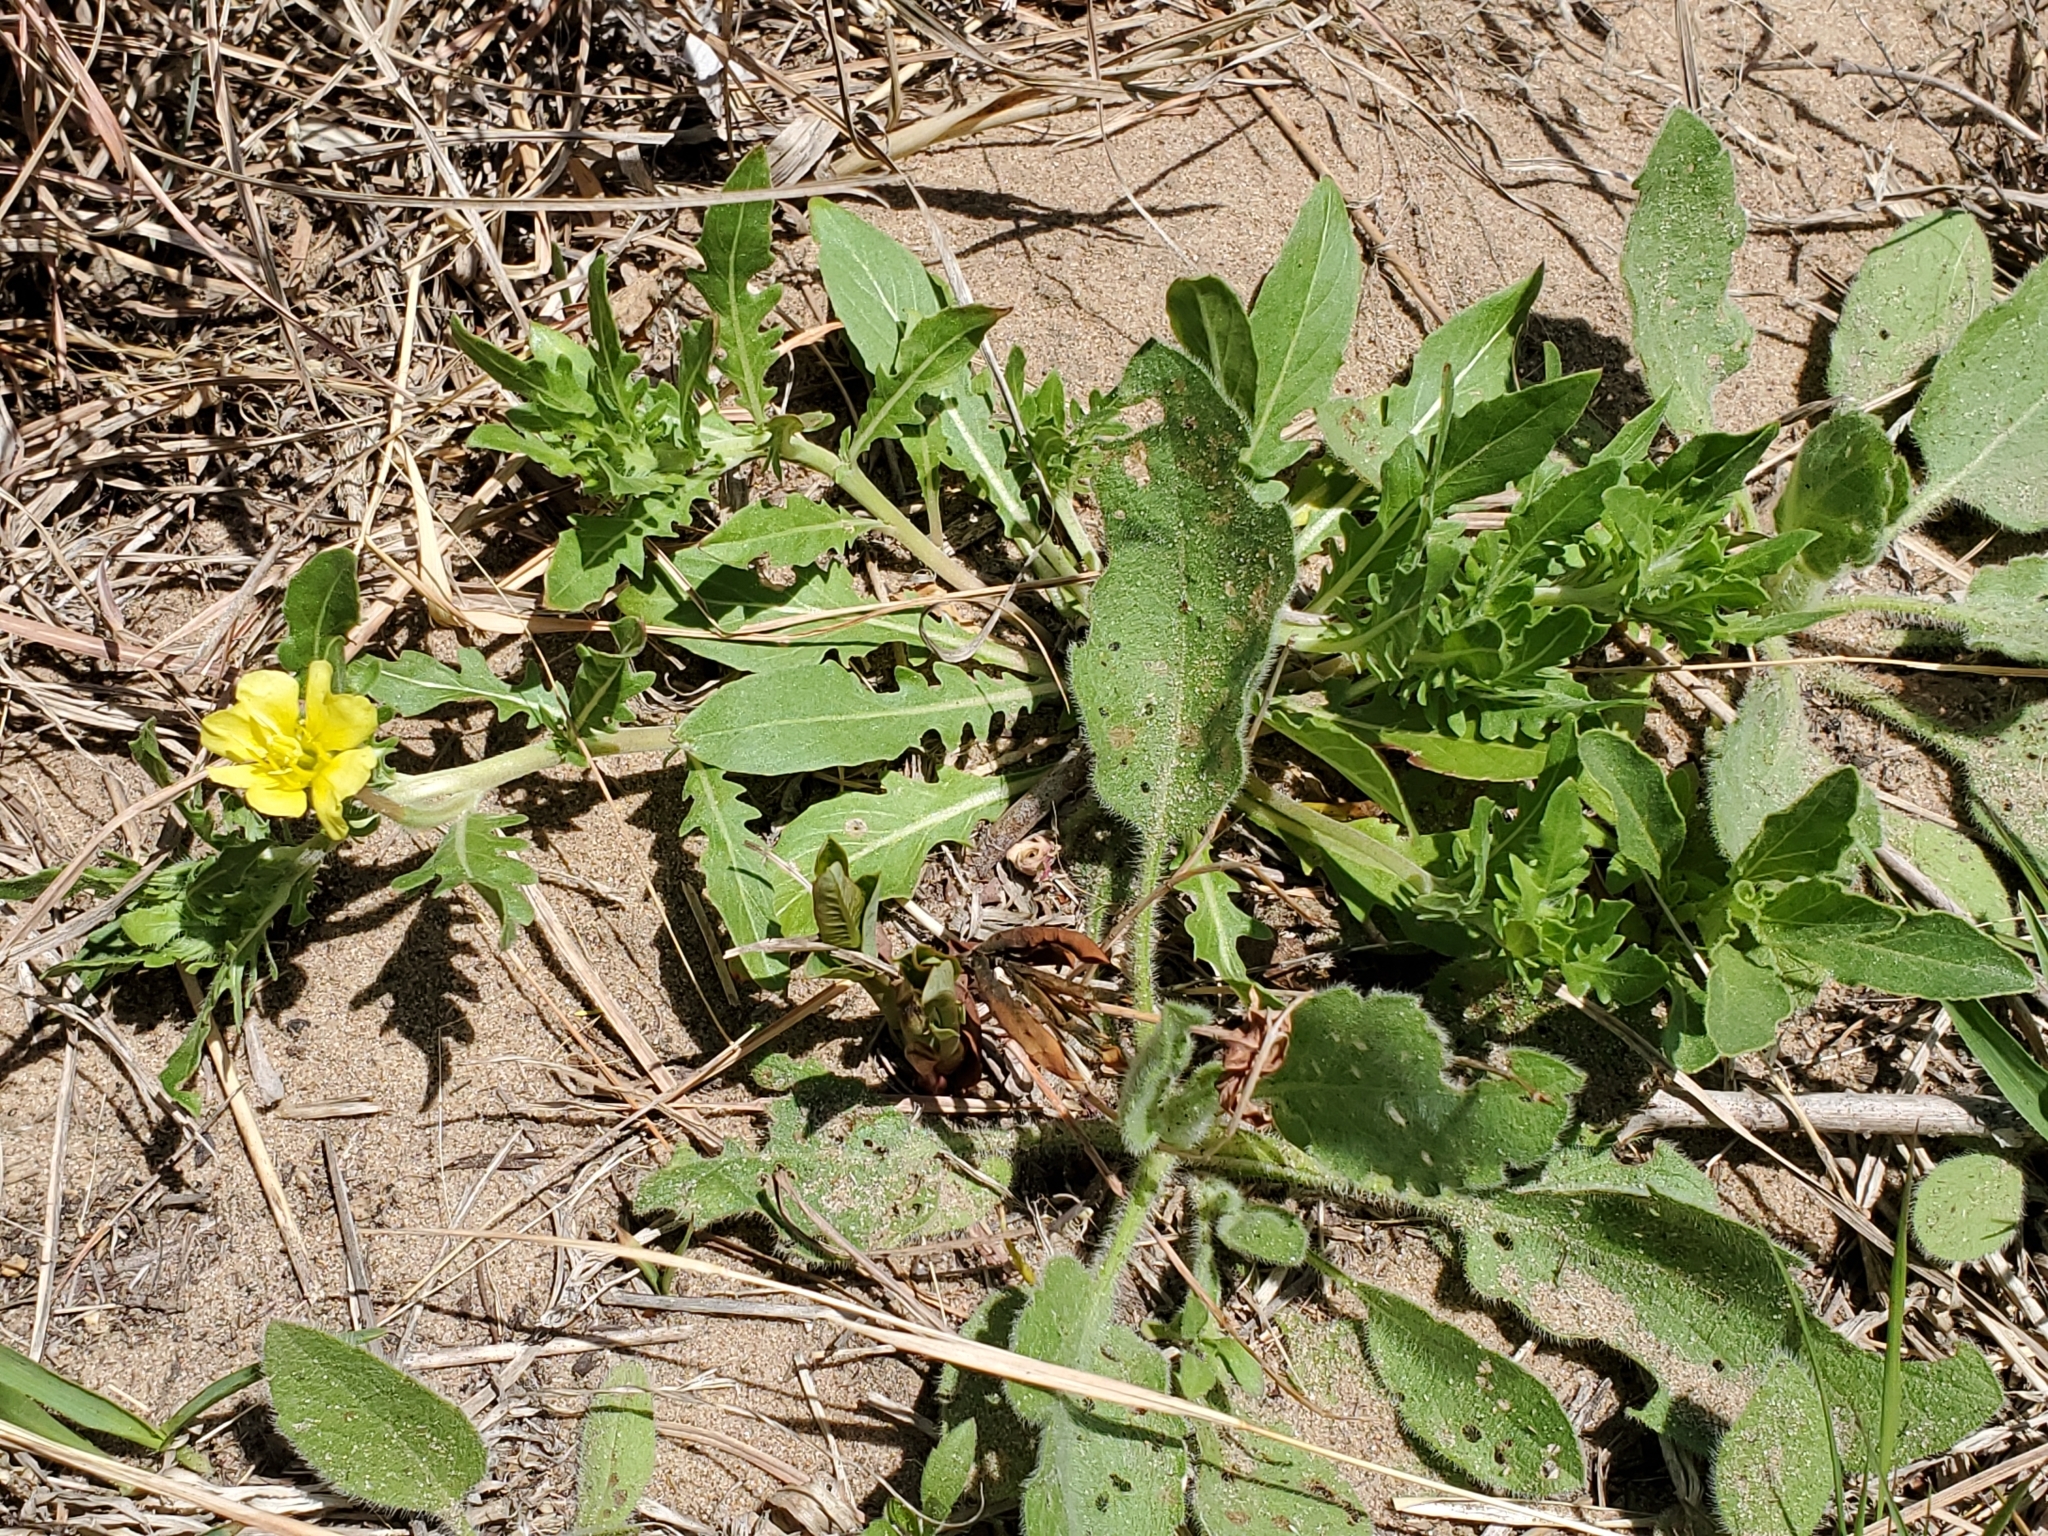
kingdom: Plantae
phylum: Tracheophyta
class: Magnoliopsida
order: Myrtales
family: Onagraceae
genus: Oenothera
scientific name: Oenothera laciniata
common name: Cut-leaved evening-primrose
